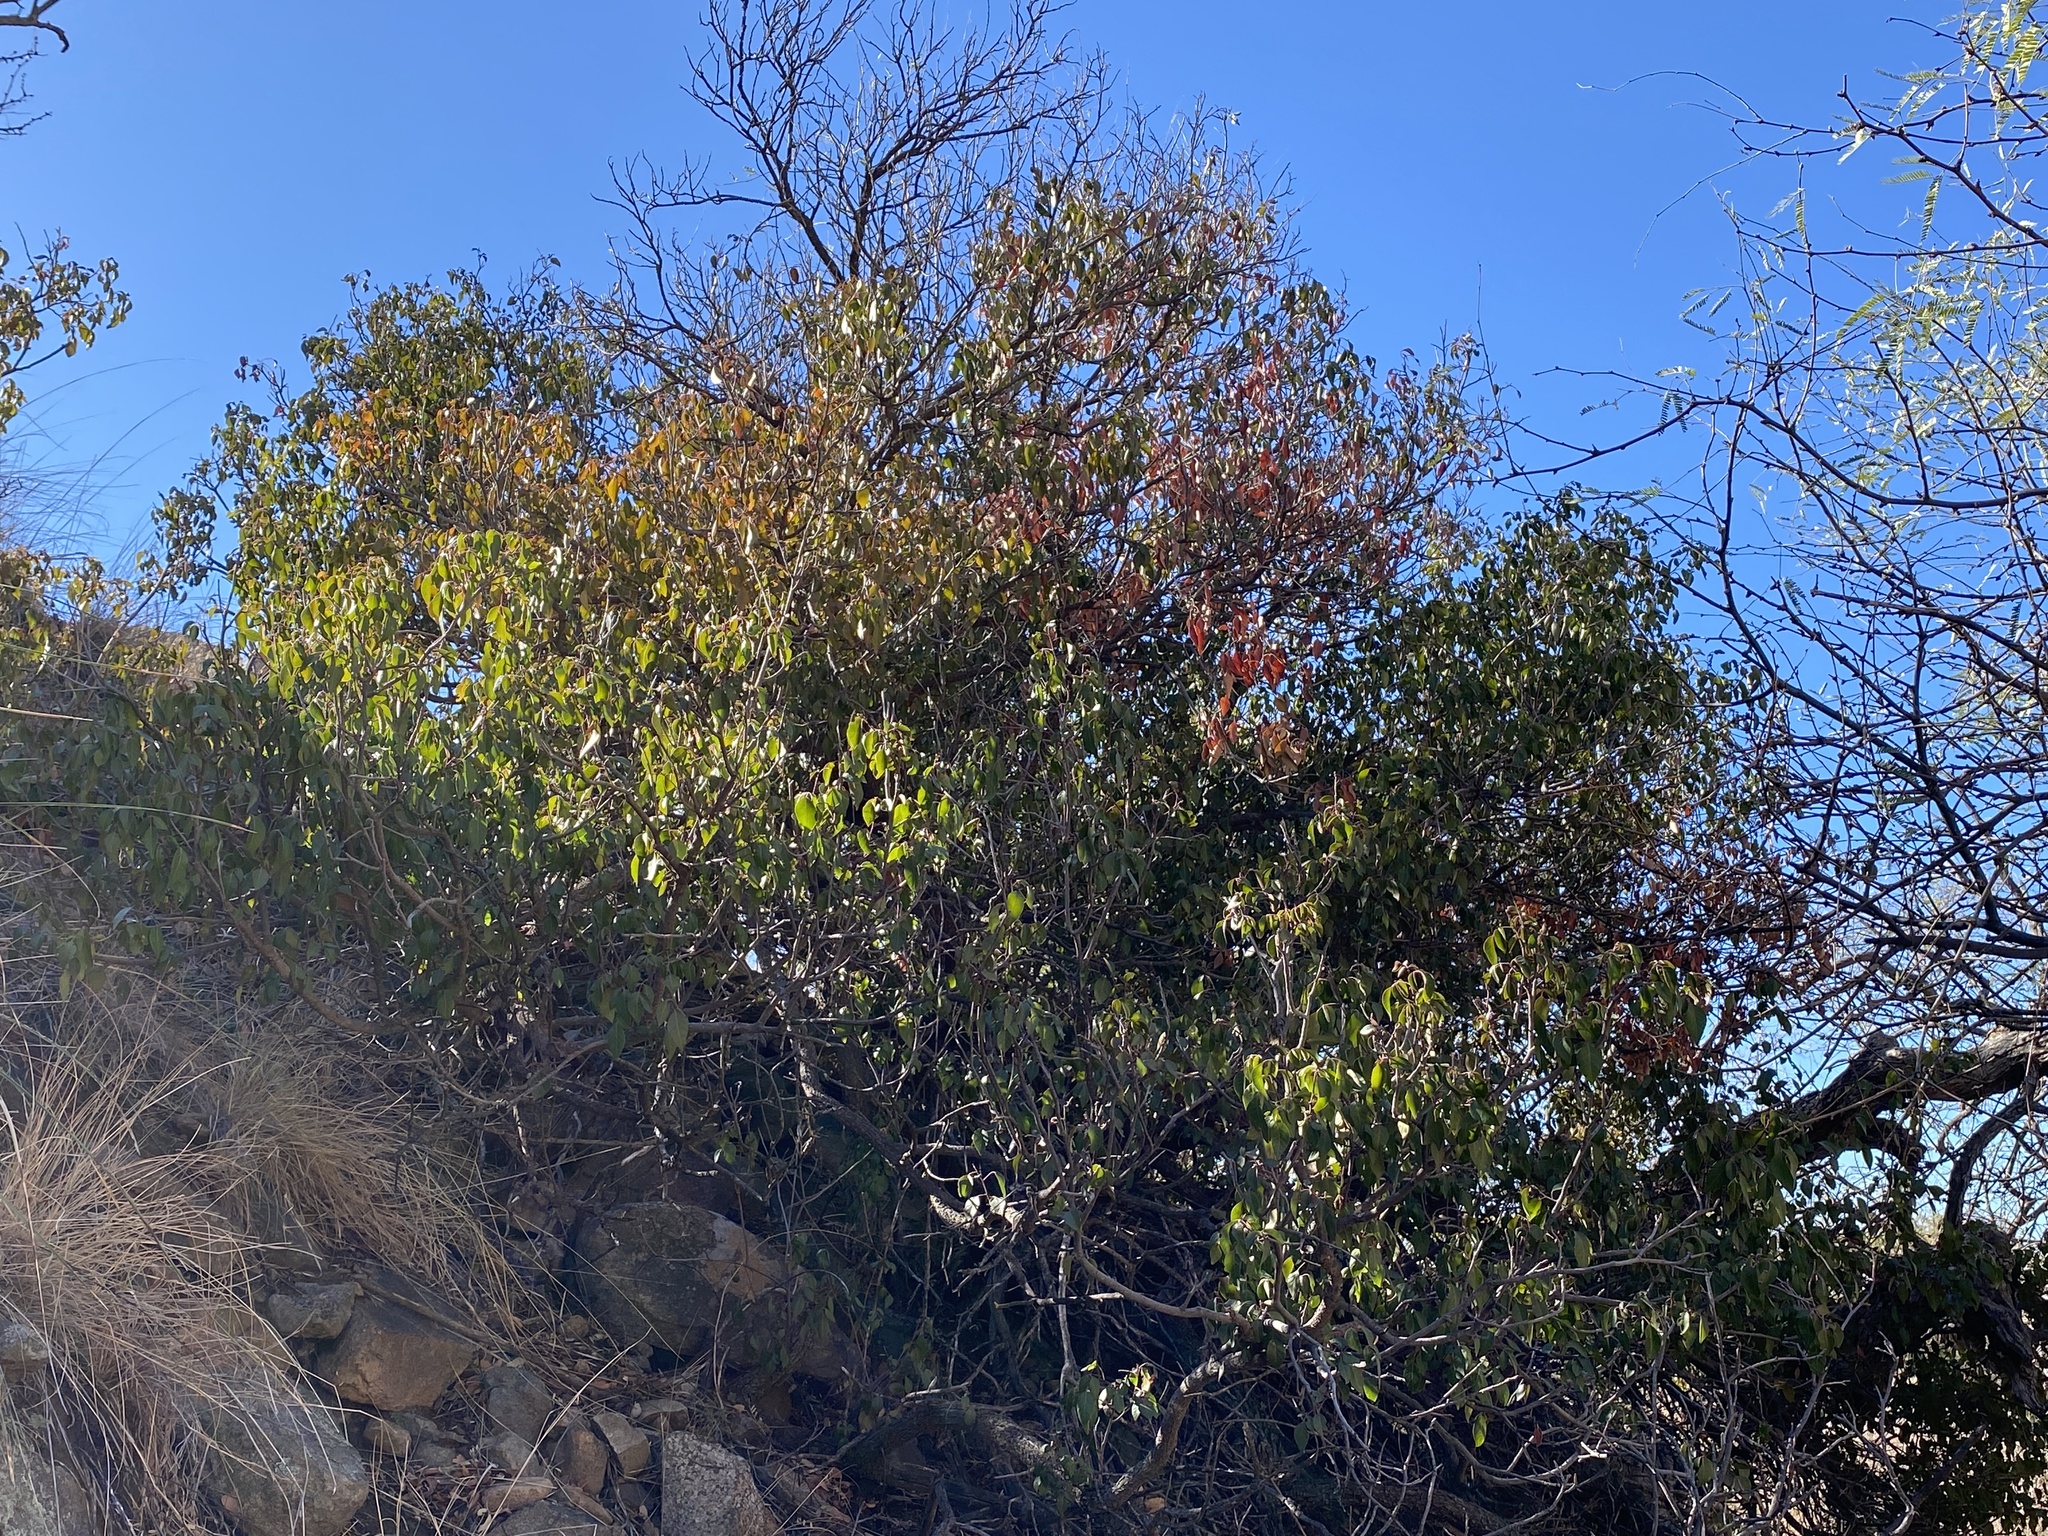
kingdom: Plantae
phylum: Tracheophyta
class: Magnoliopsida
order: Sapindales
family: Anacardiaceae
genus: Rhus
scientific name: Rhus virens
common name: Evergreen sumac
